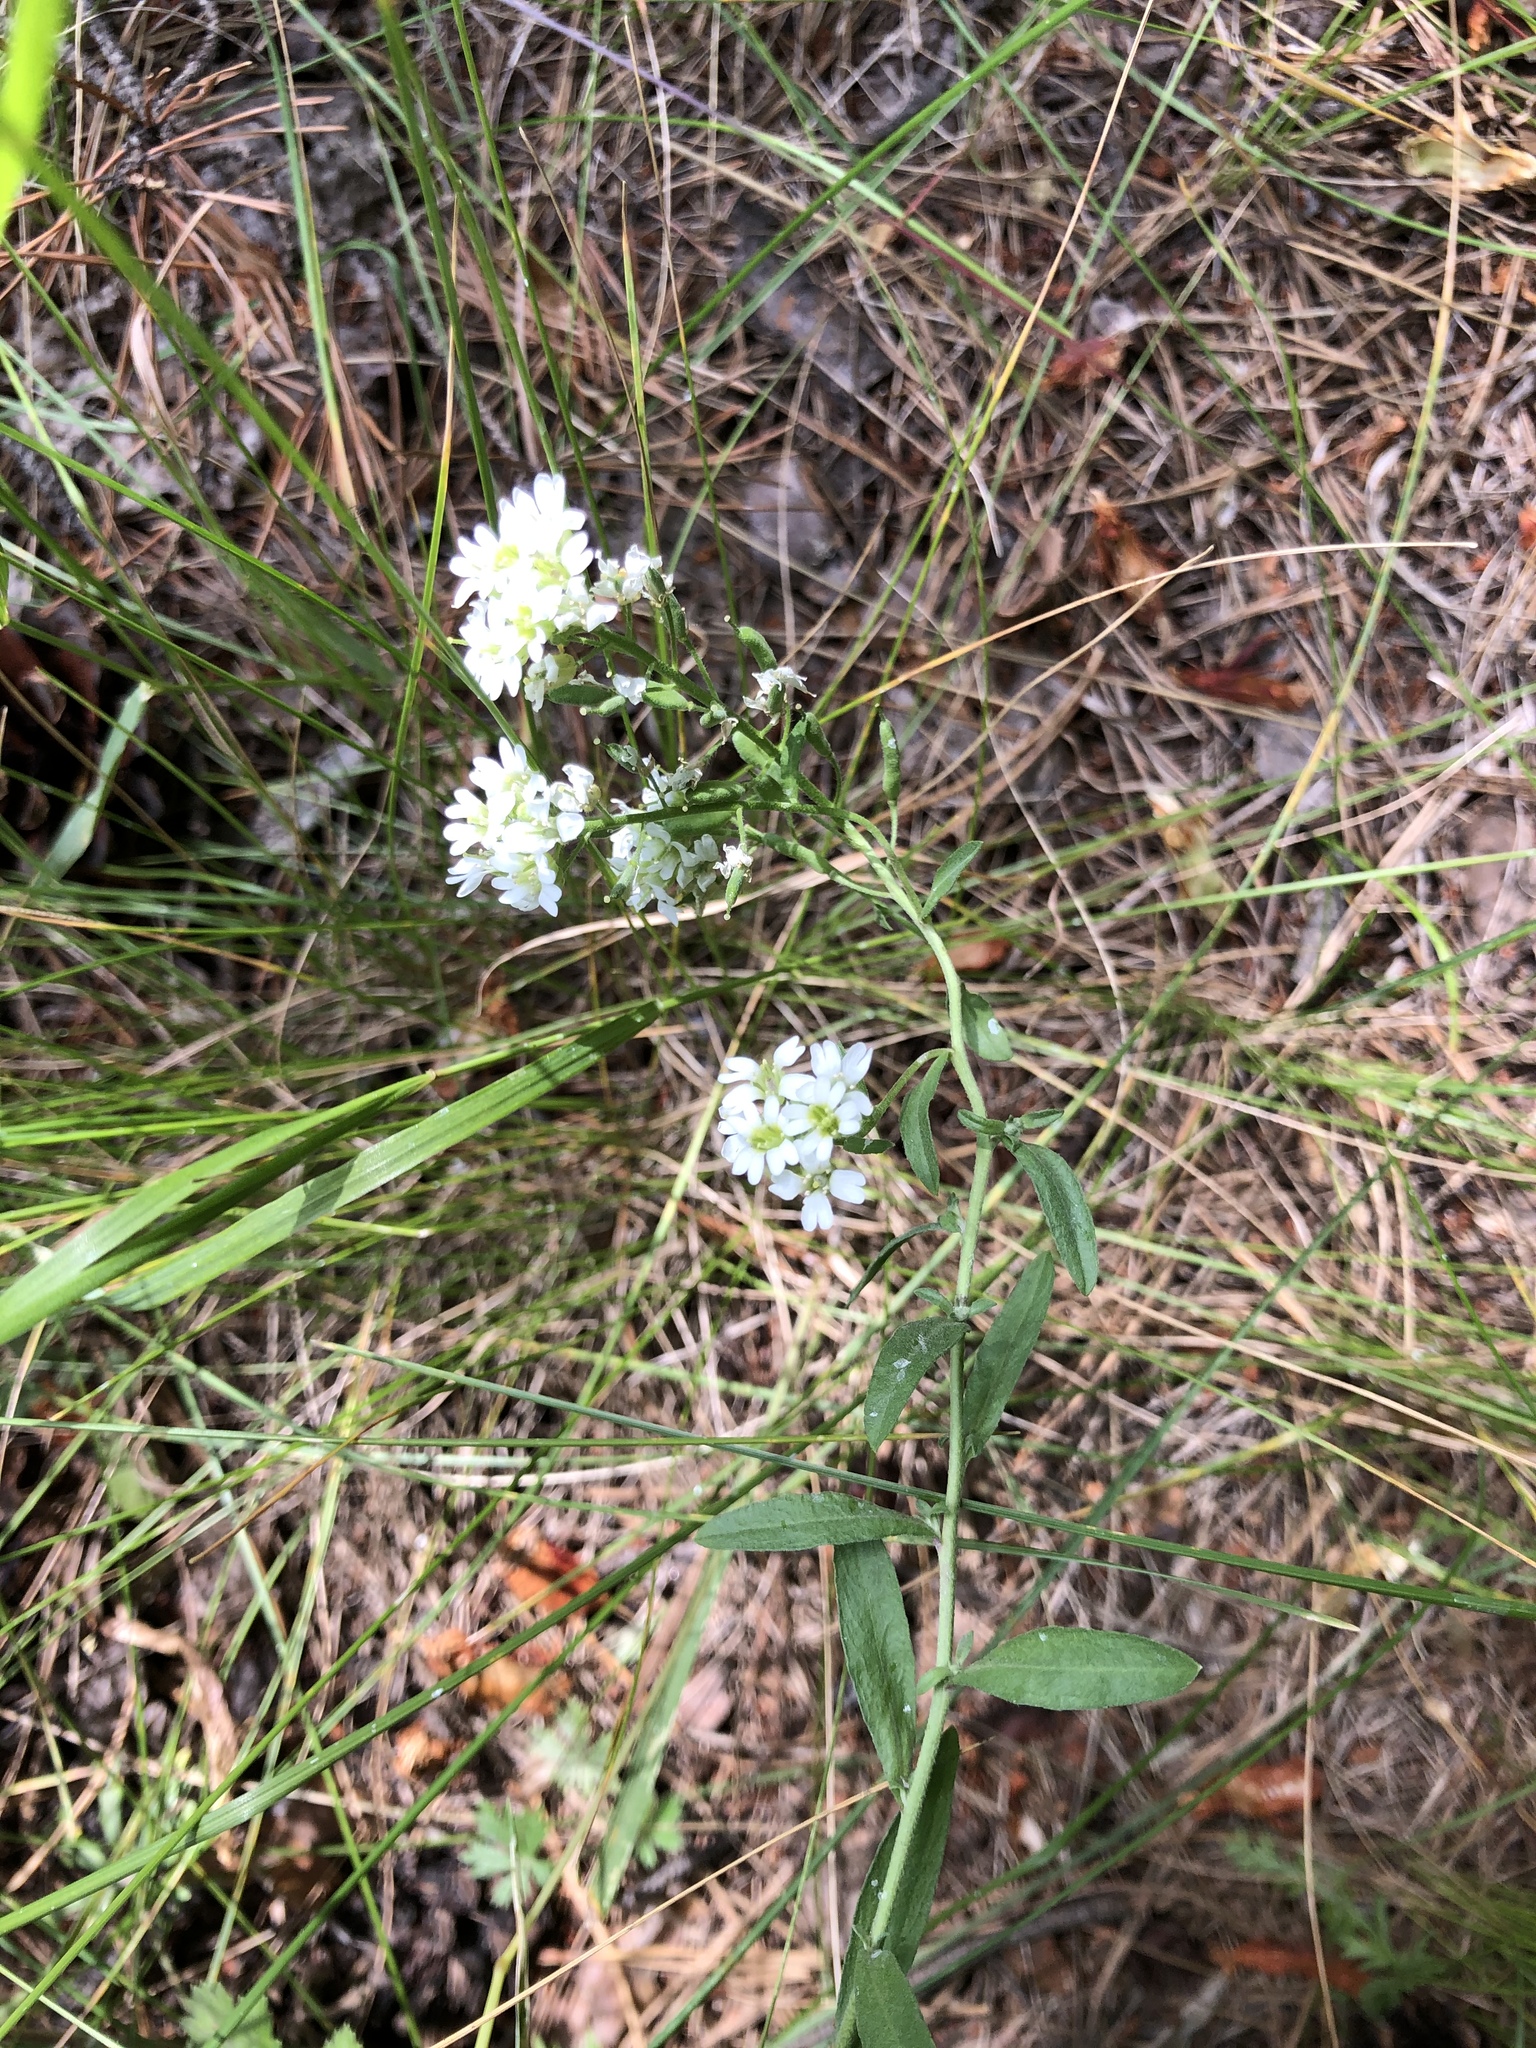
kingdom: Plantae
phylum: Tracheophyta
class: Magnoliopsida
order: Brassicales
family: Brassicaceae
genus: Berteroa
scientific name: Berteroa incana
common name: Hoary alison
